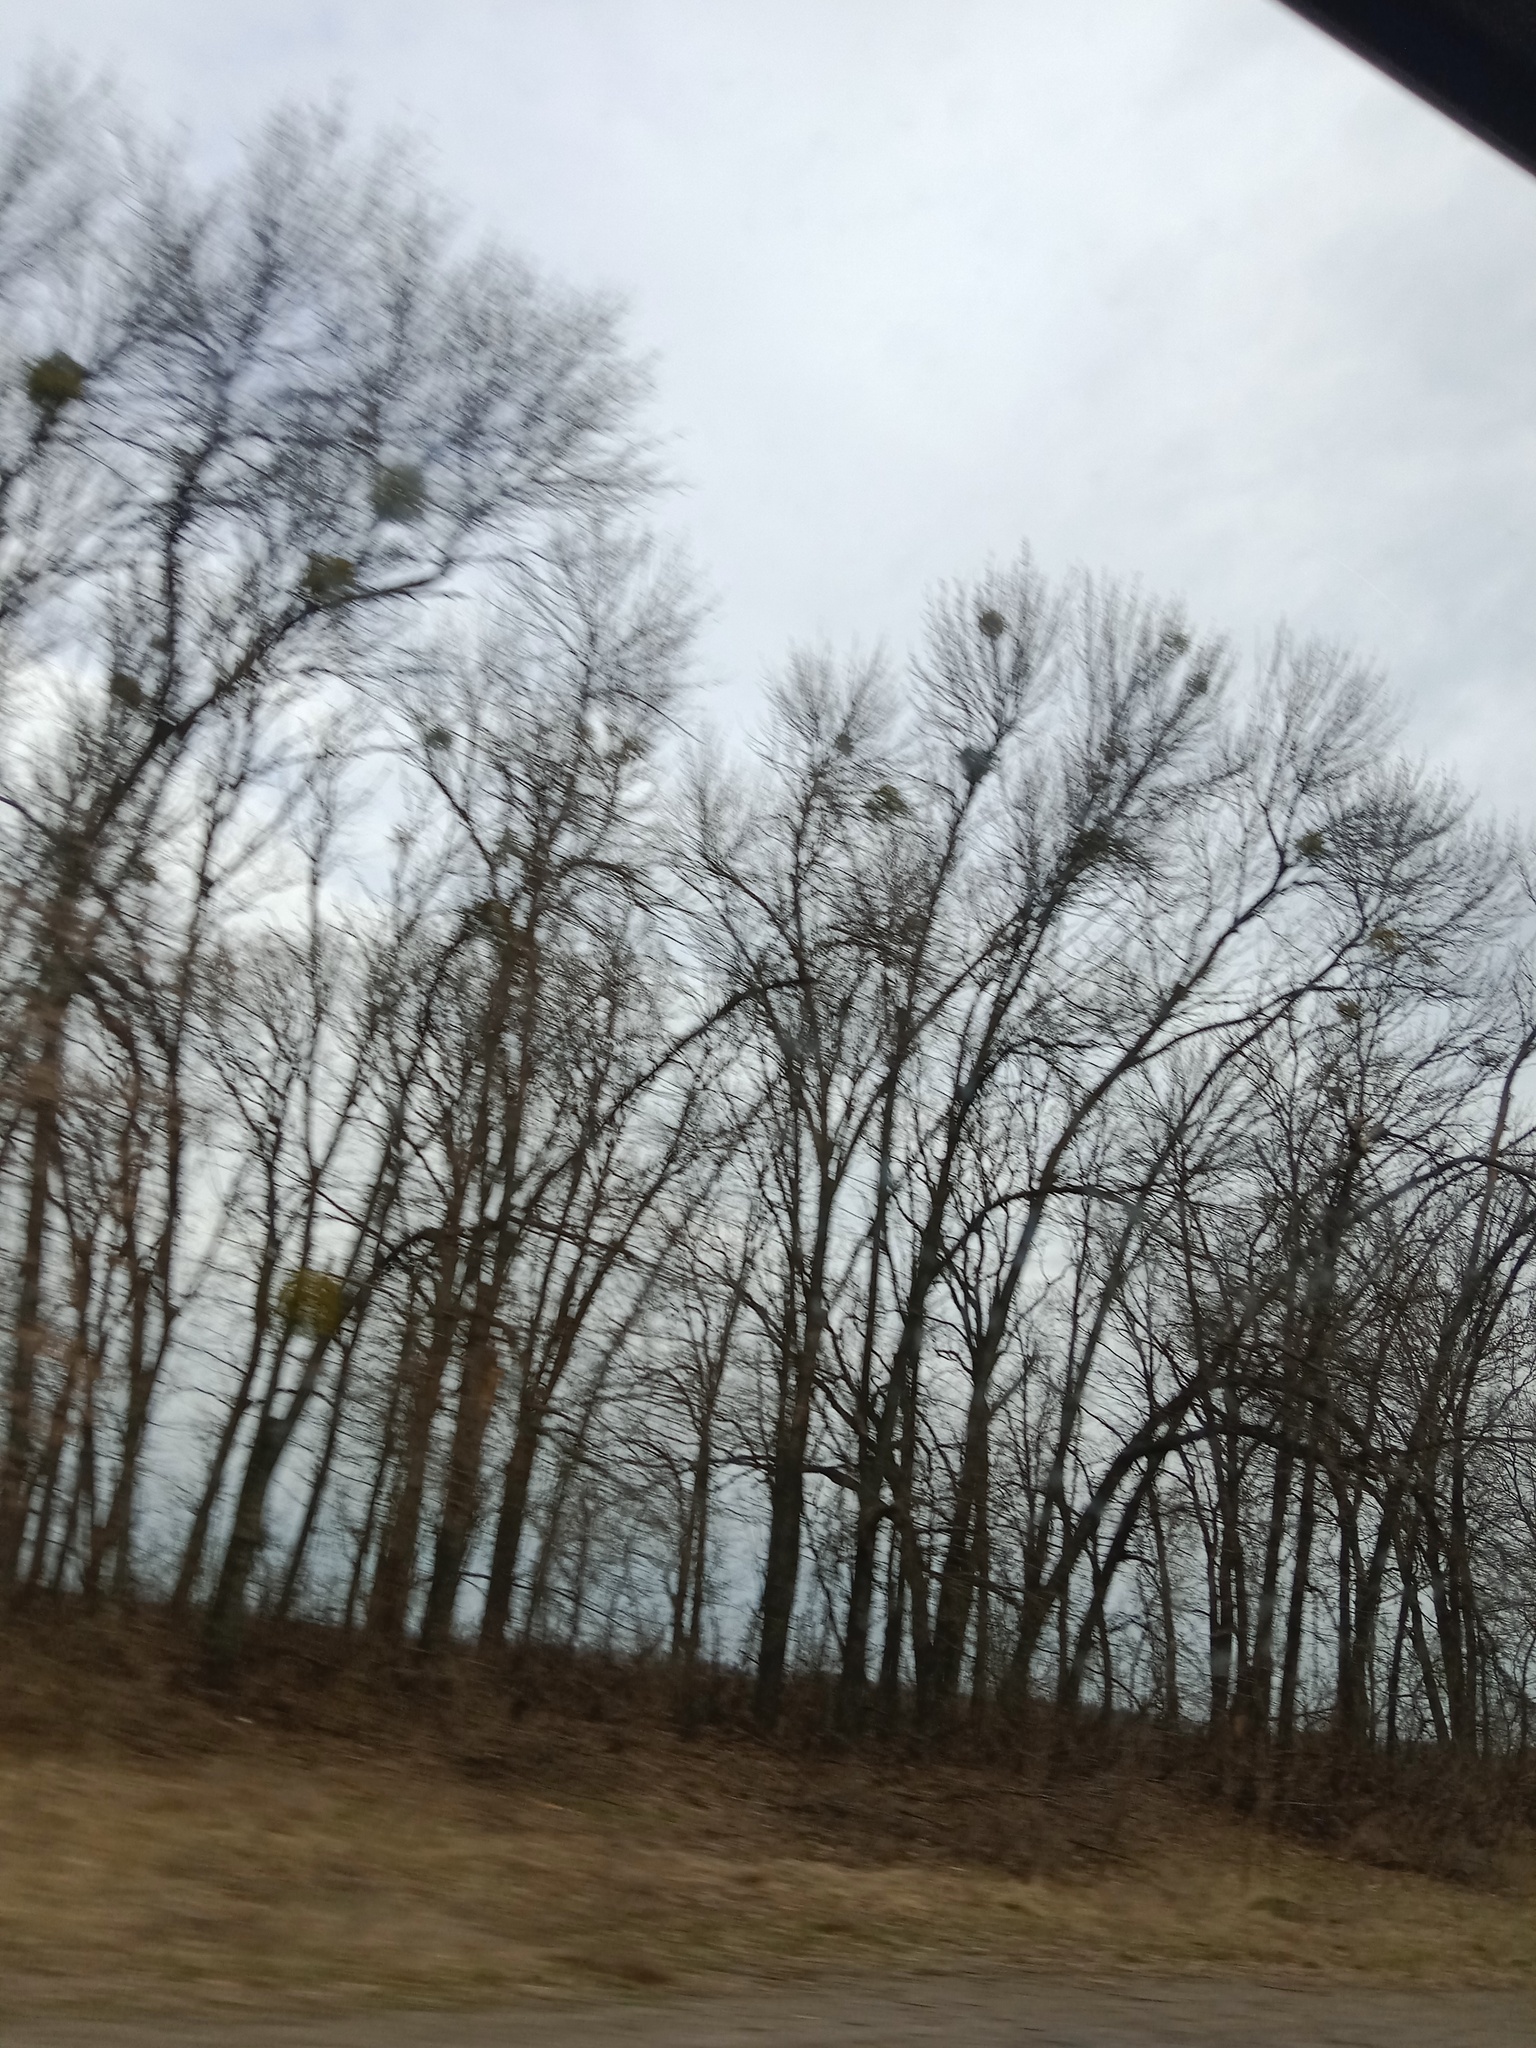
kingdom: Plantae
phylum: Tracheophyta
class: Magnoliopsida
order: Santalales
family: Viscaceae
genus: Viscum
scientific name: Viscum album
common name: Mistletoe
